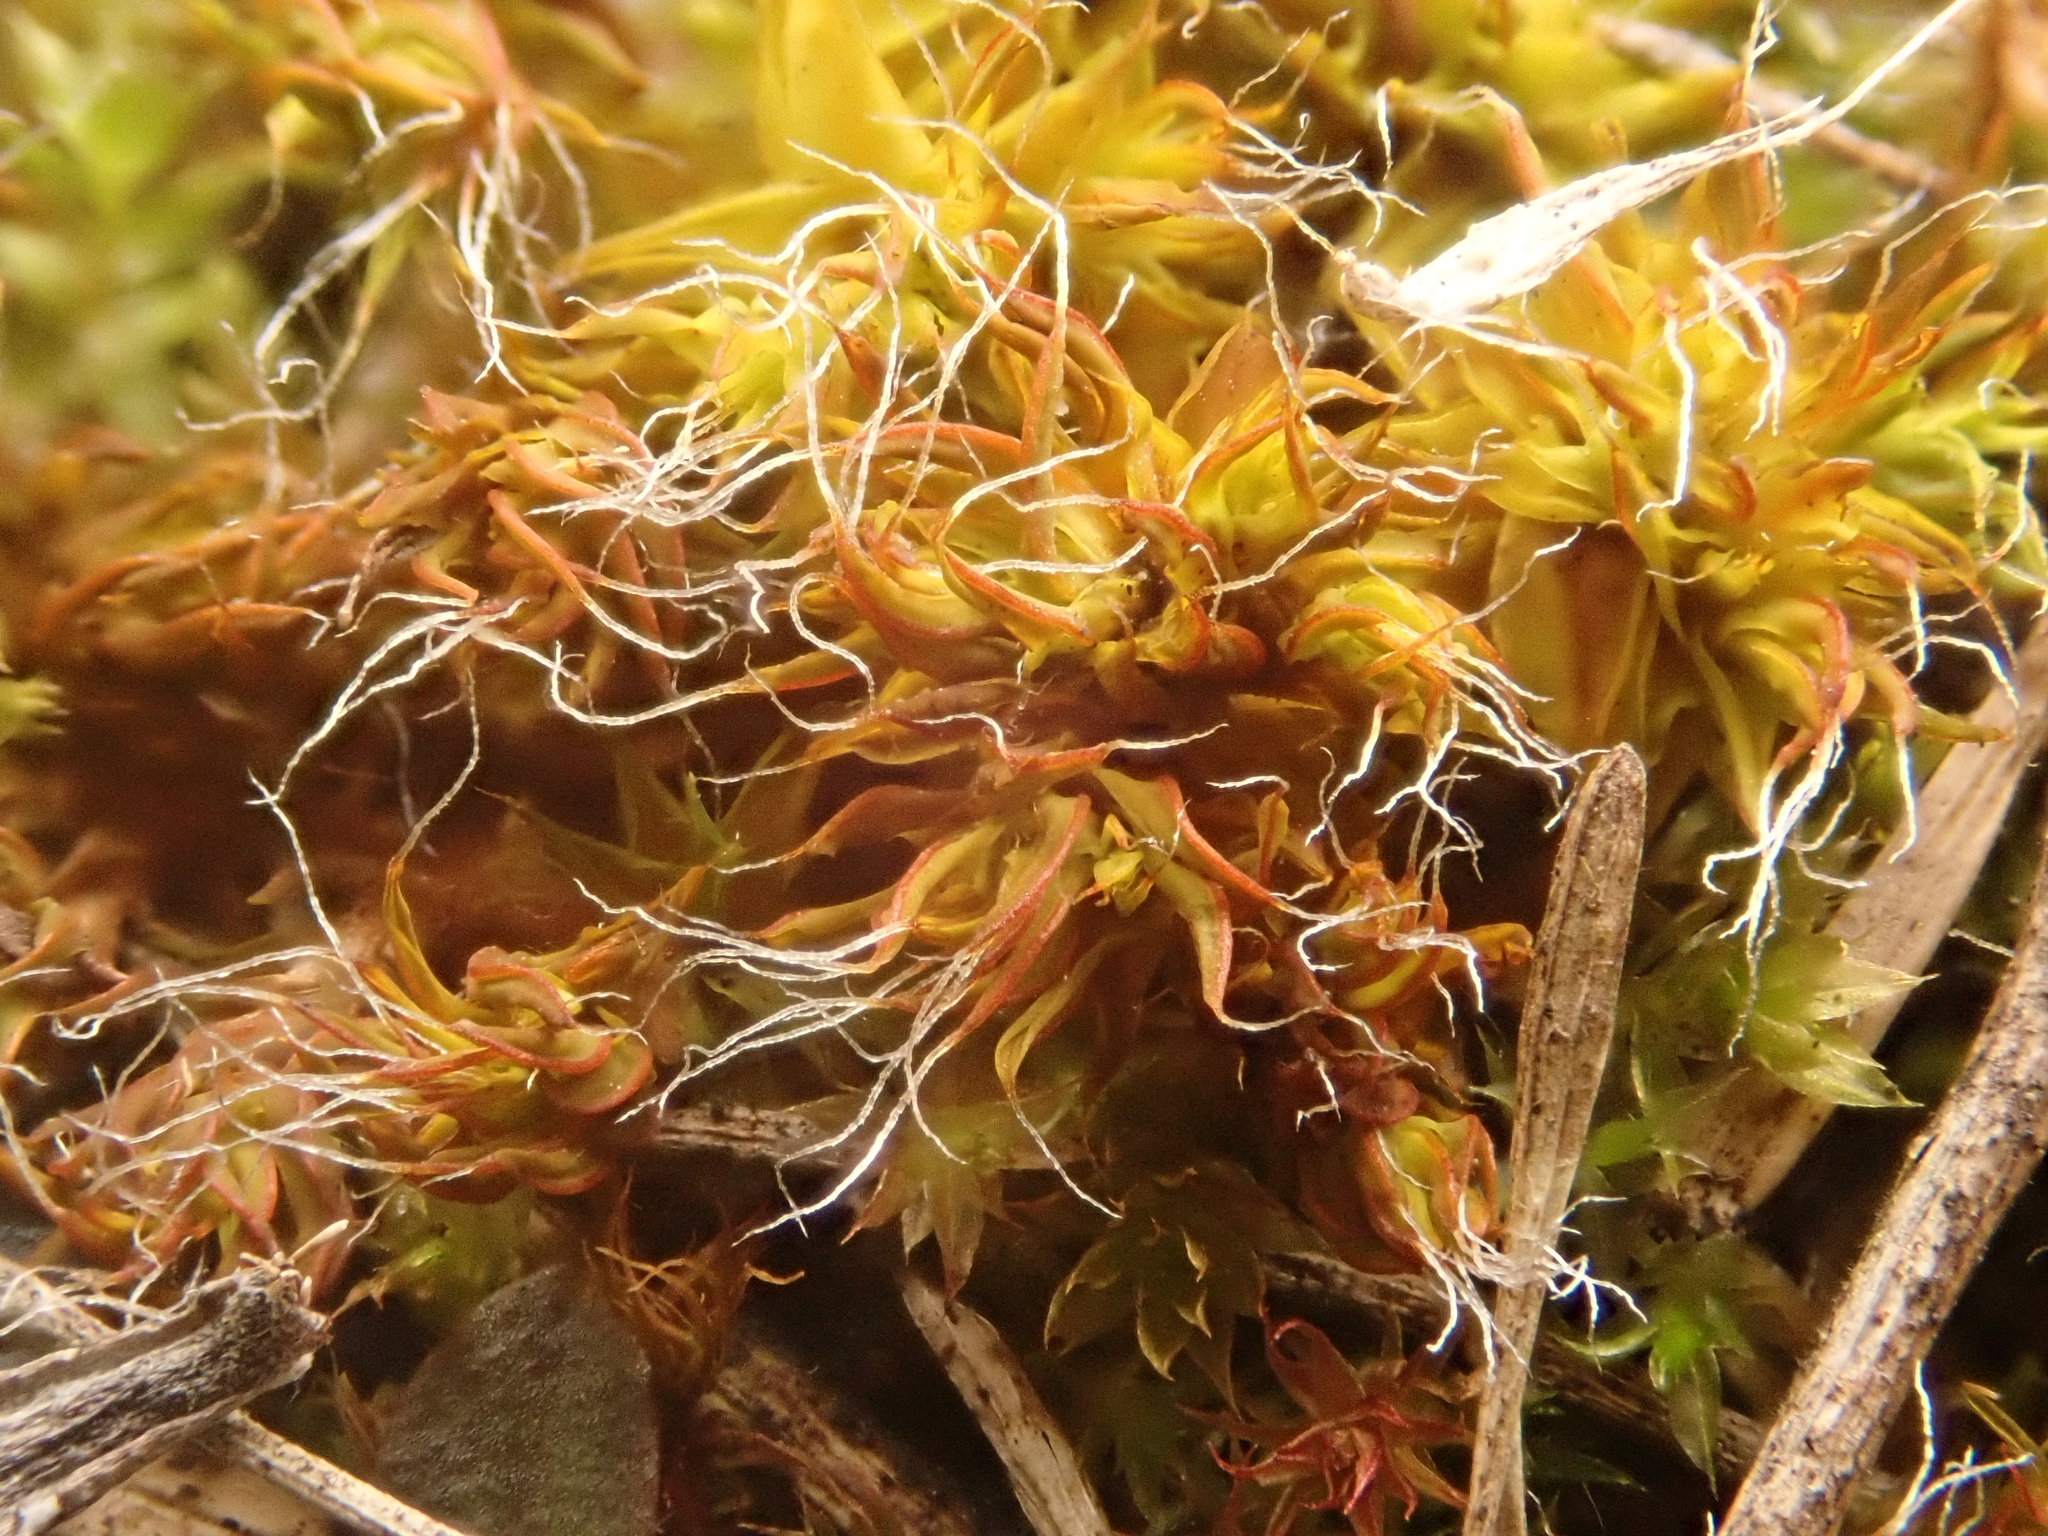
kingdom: Plantae
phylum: Bryophyta
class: Bryopsida
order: Pottiales
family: Pottiaceae
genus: Syntrichia
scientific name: Syntrichia ruralis
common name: Sidewalk screw moss
